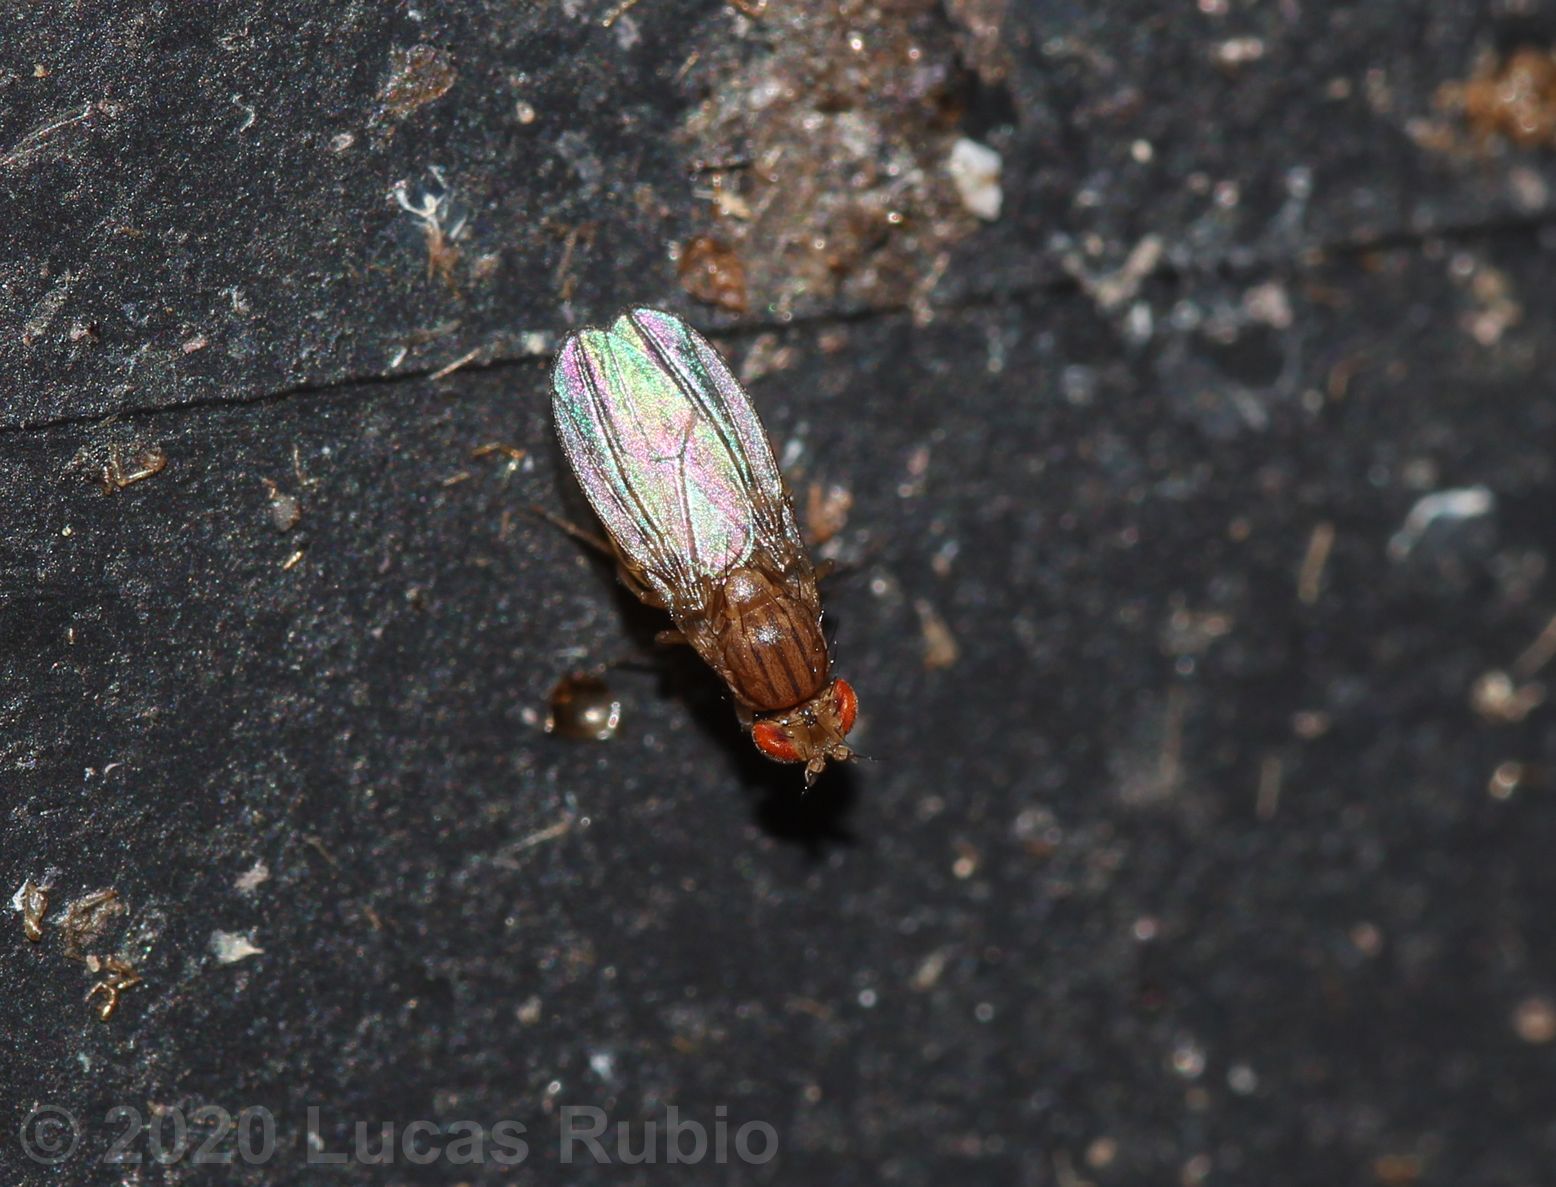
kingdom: Animalia
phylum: Arthropoda
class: Insecta
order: Diptera
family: Drosophilidae
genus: Drosophila
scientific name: Drosophila busckii
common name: Pomace fly
